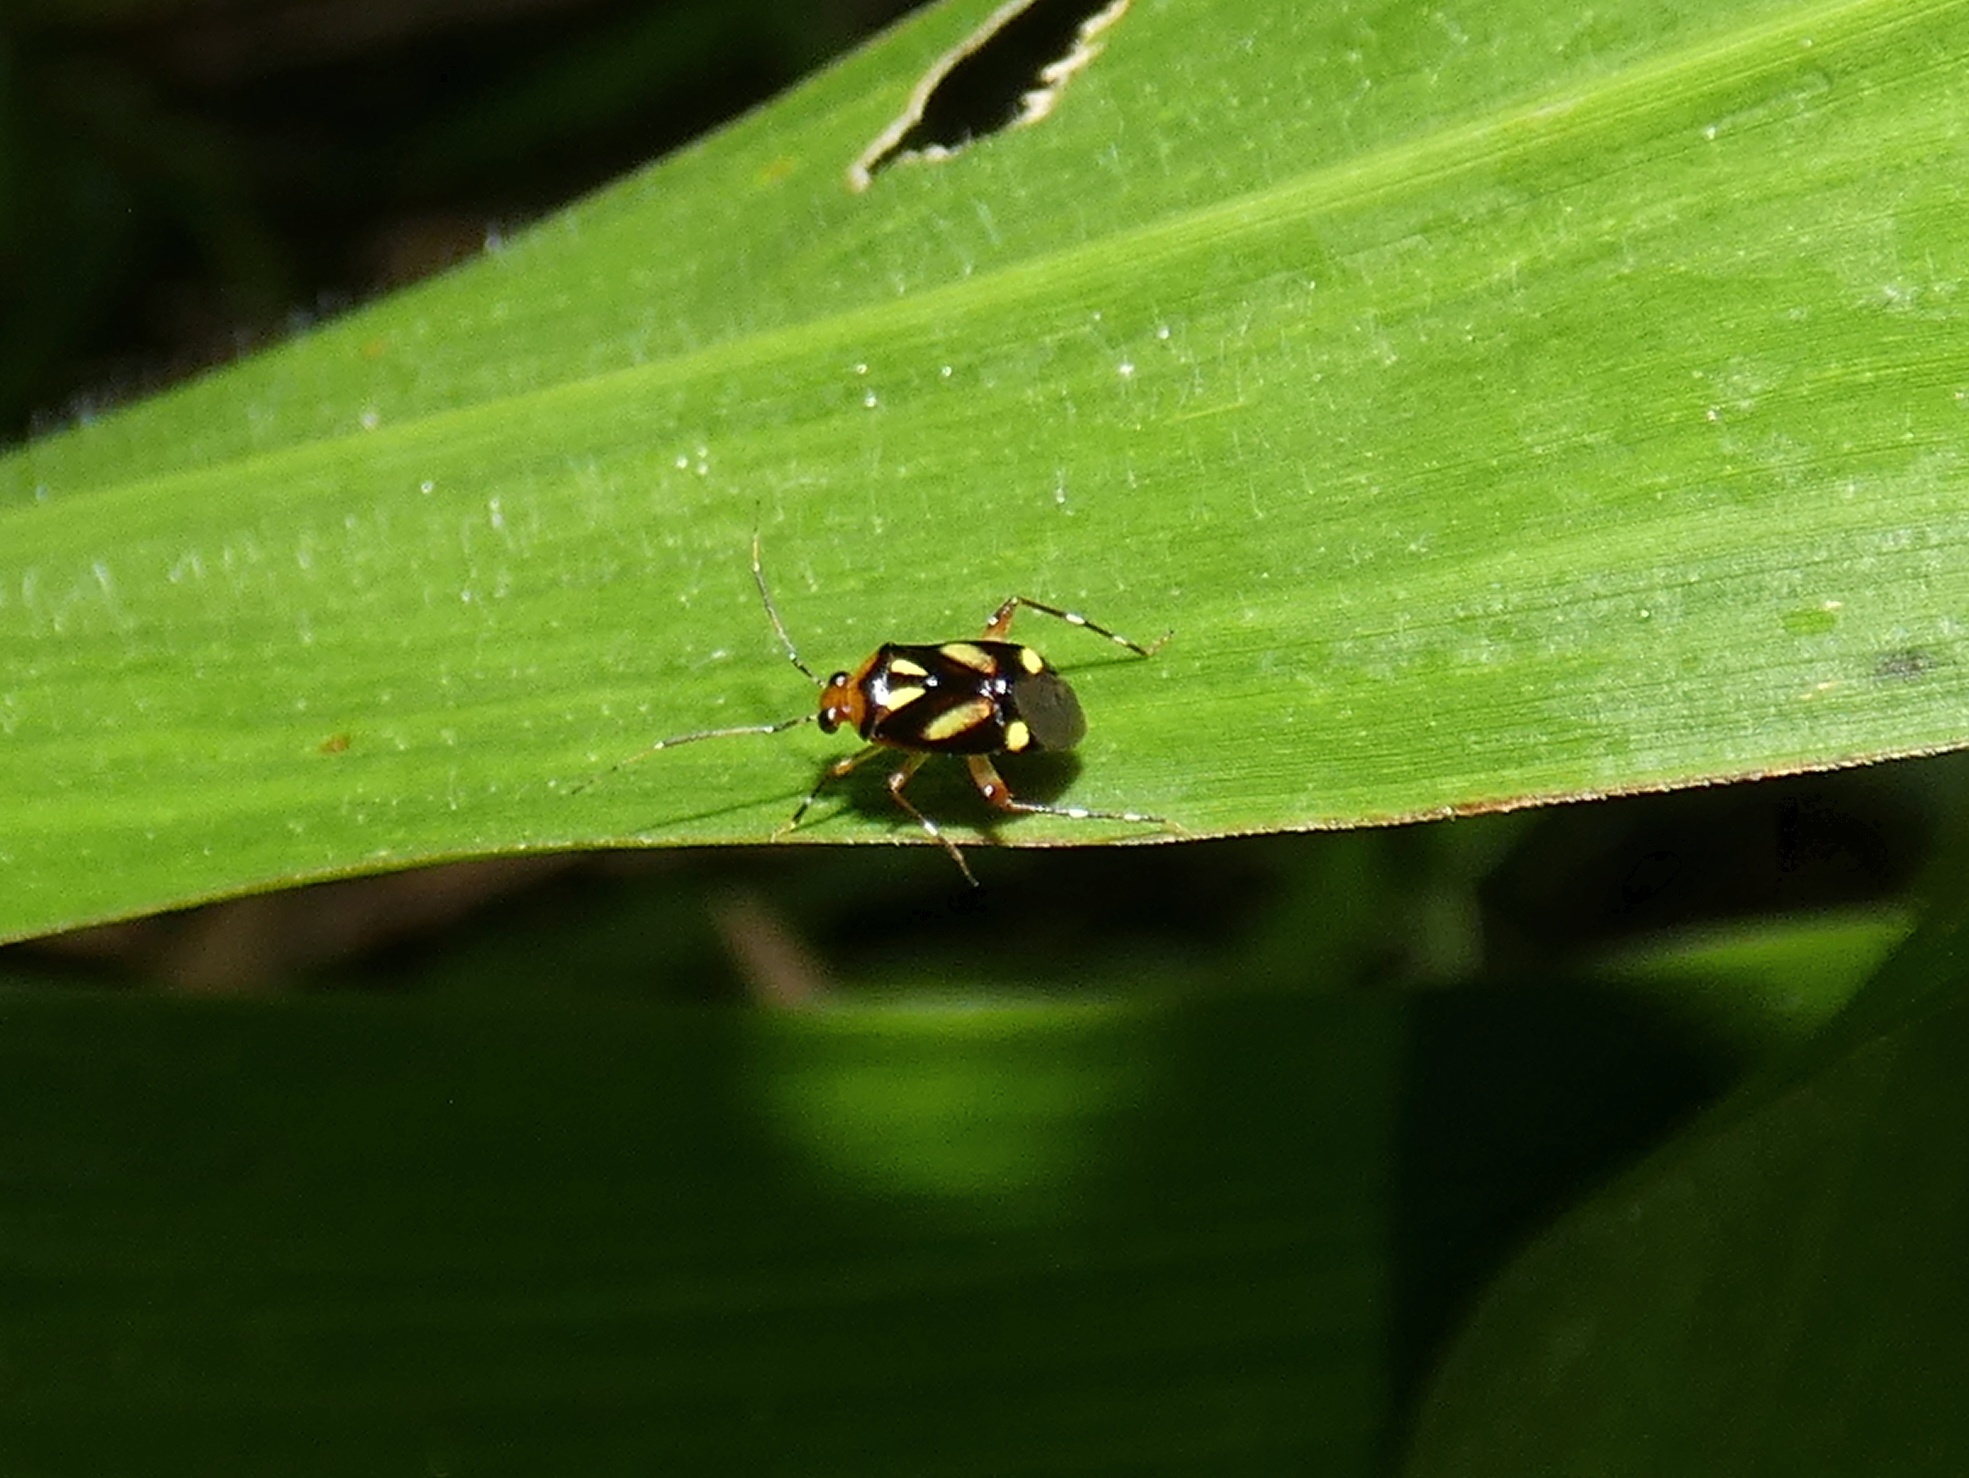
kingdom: Animalia
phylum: Arthropoda
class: Insecta
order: Hemiptera
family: Miridae
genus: Horcias
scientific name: Horcias variegatus
